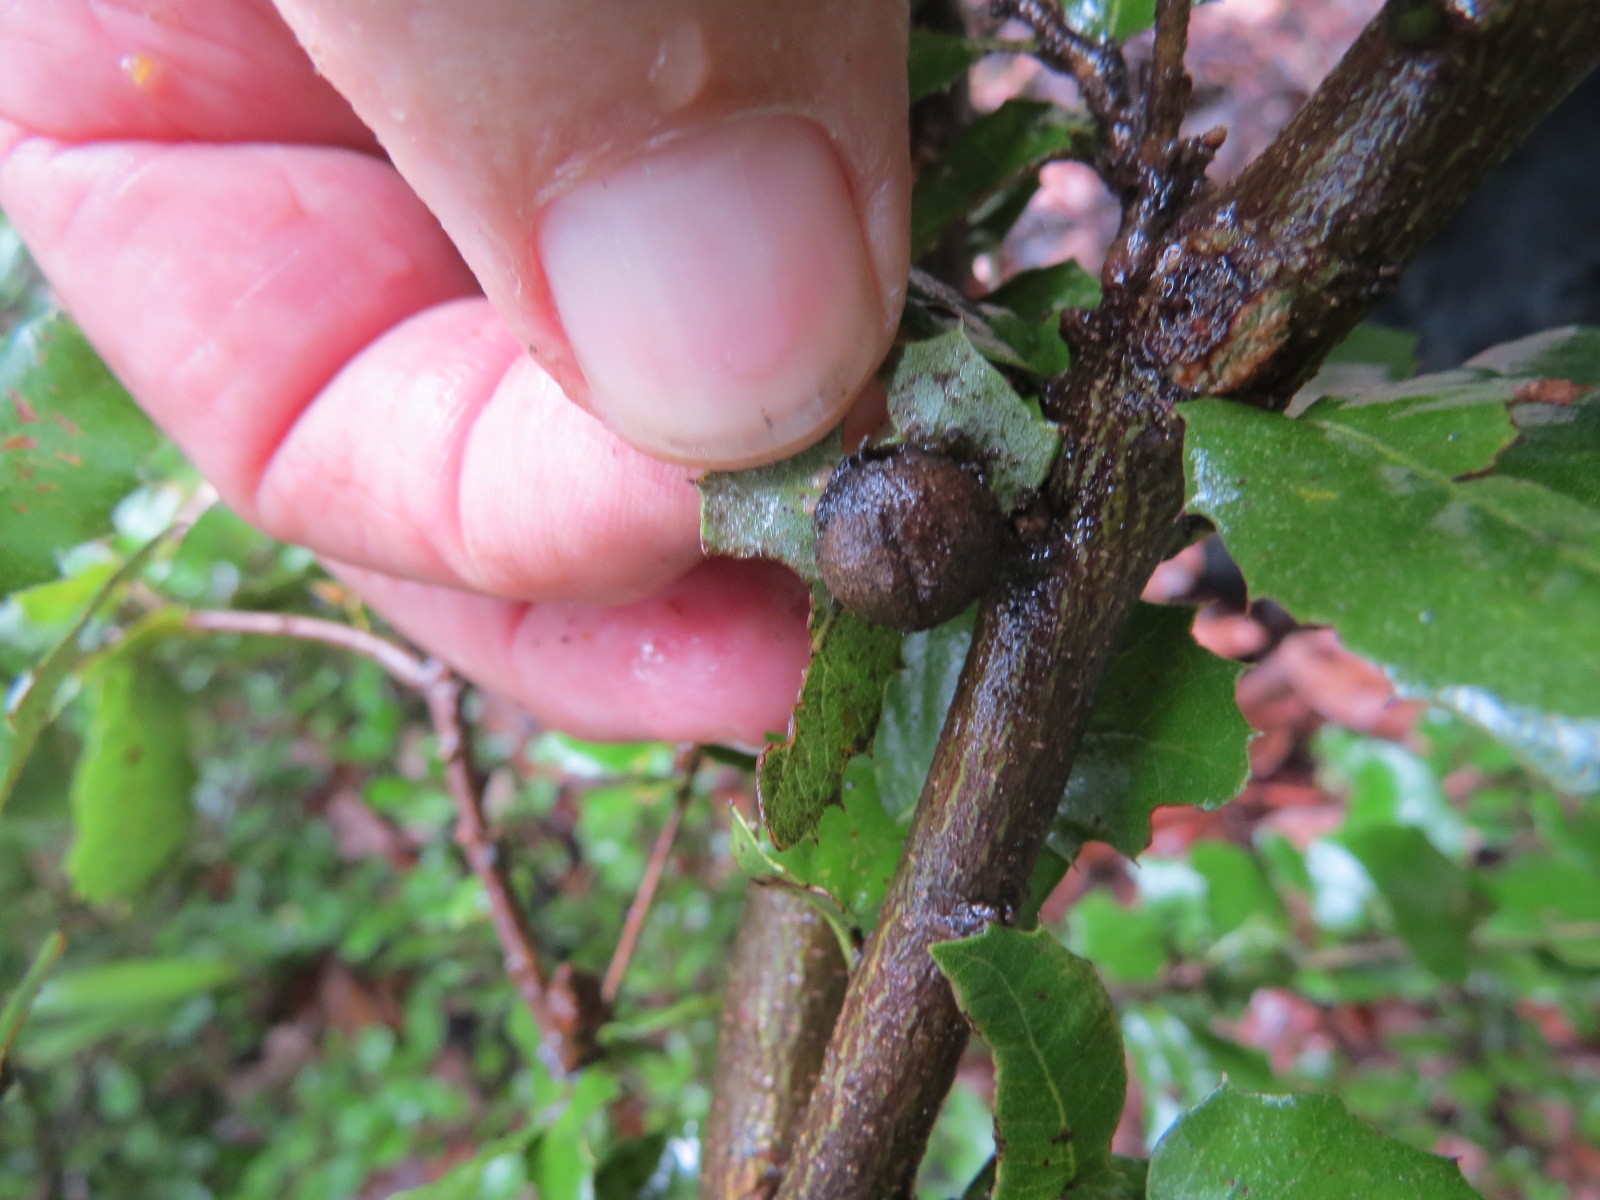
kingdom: Animalia
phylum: Arthropoda
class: Insecta
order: Hymenoptera
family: Cynipidae
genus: Heteroecus
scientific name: Heteroecus pacificus
